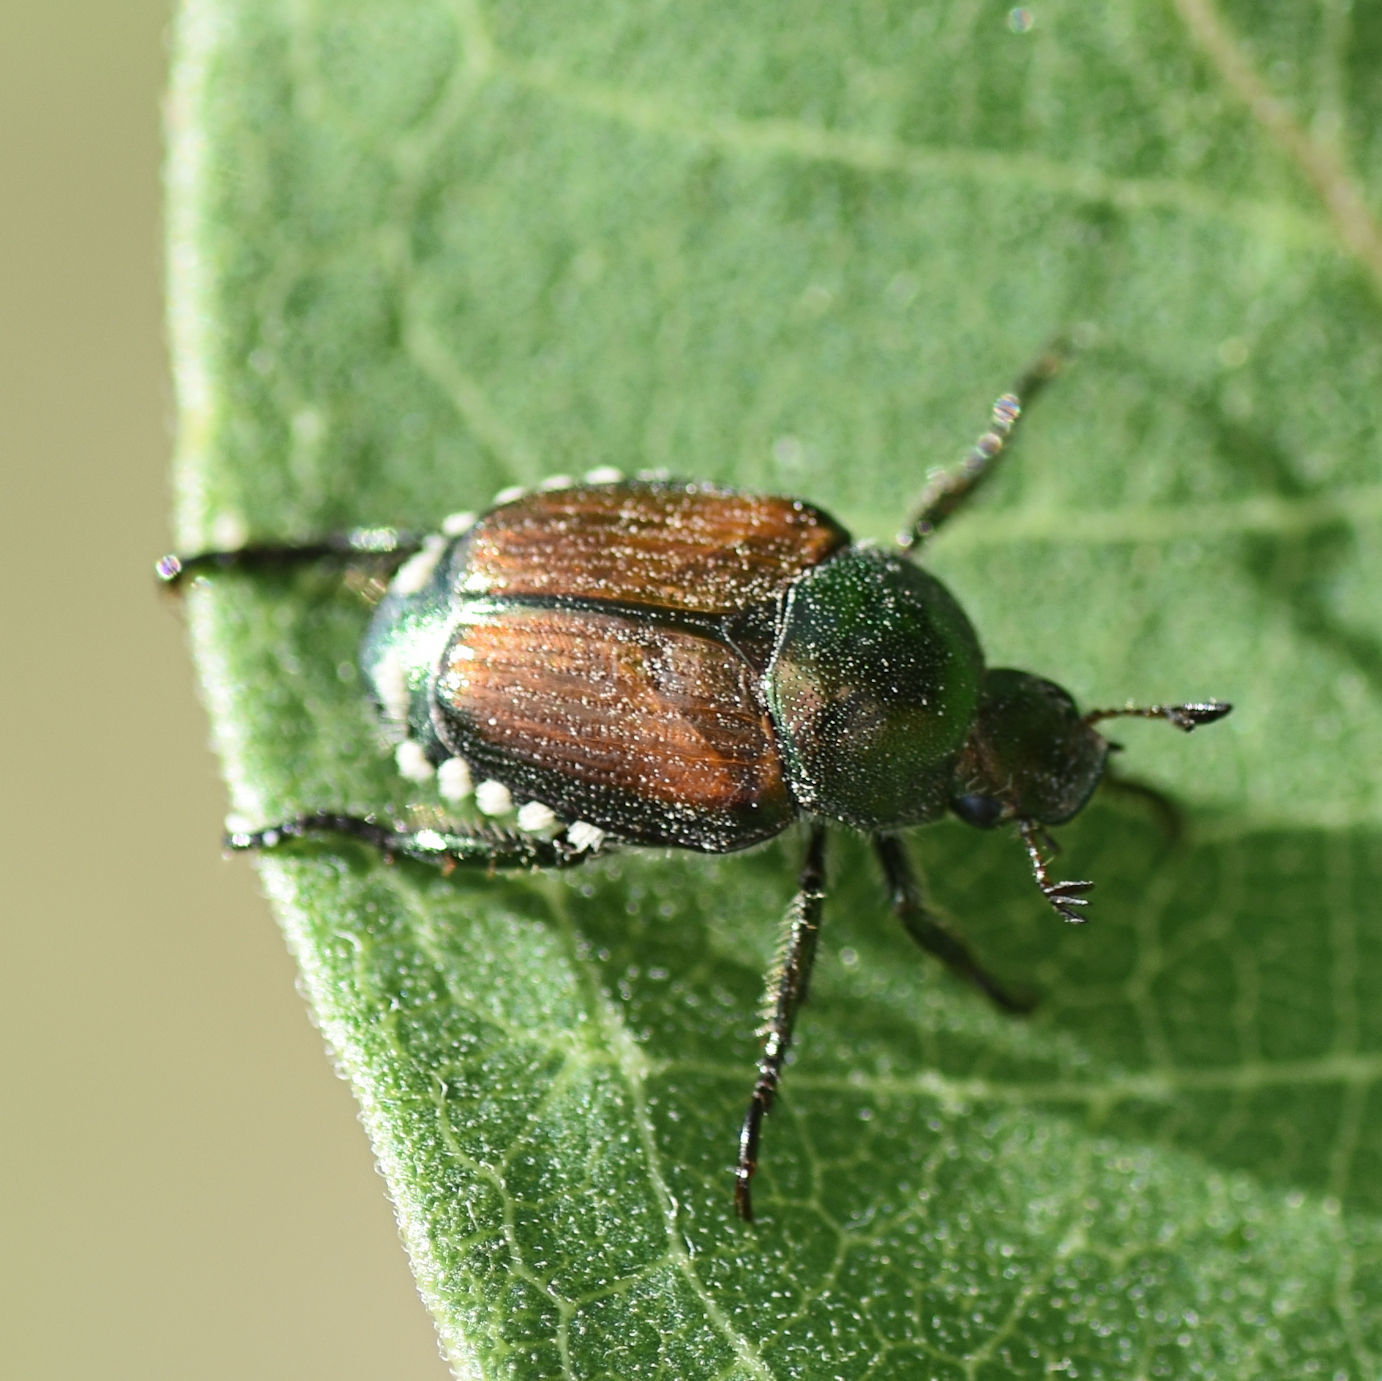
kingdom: Animalia
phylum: Arthropoda
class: Insecta
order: Coleoptera
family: Scarabaeidae
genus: Popillia
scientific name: Popillia japonica
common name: Japanese beetle
